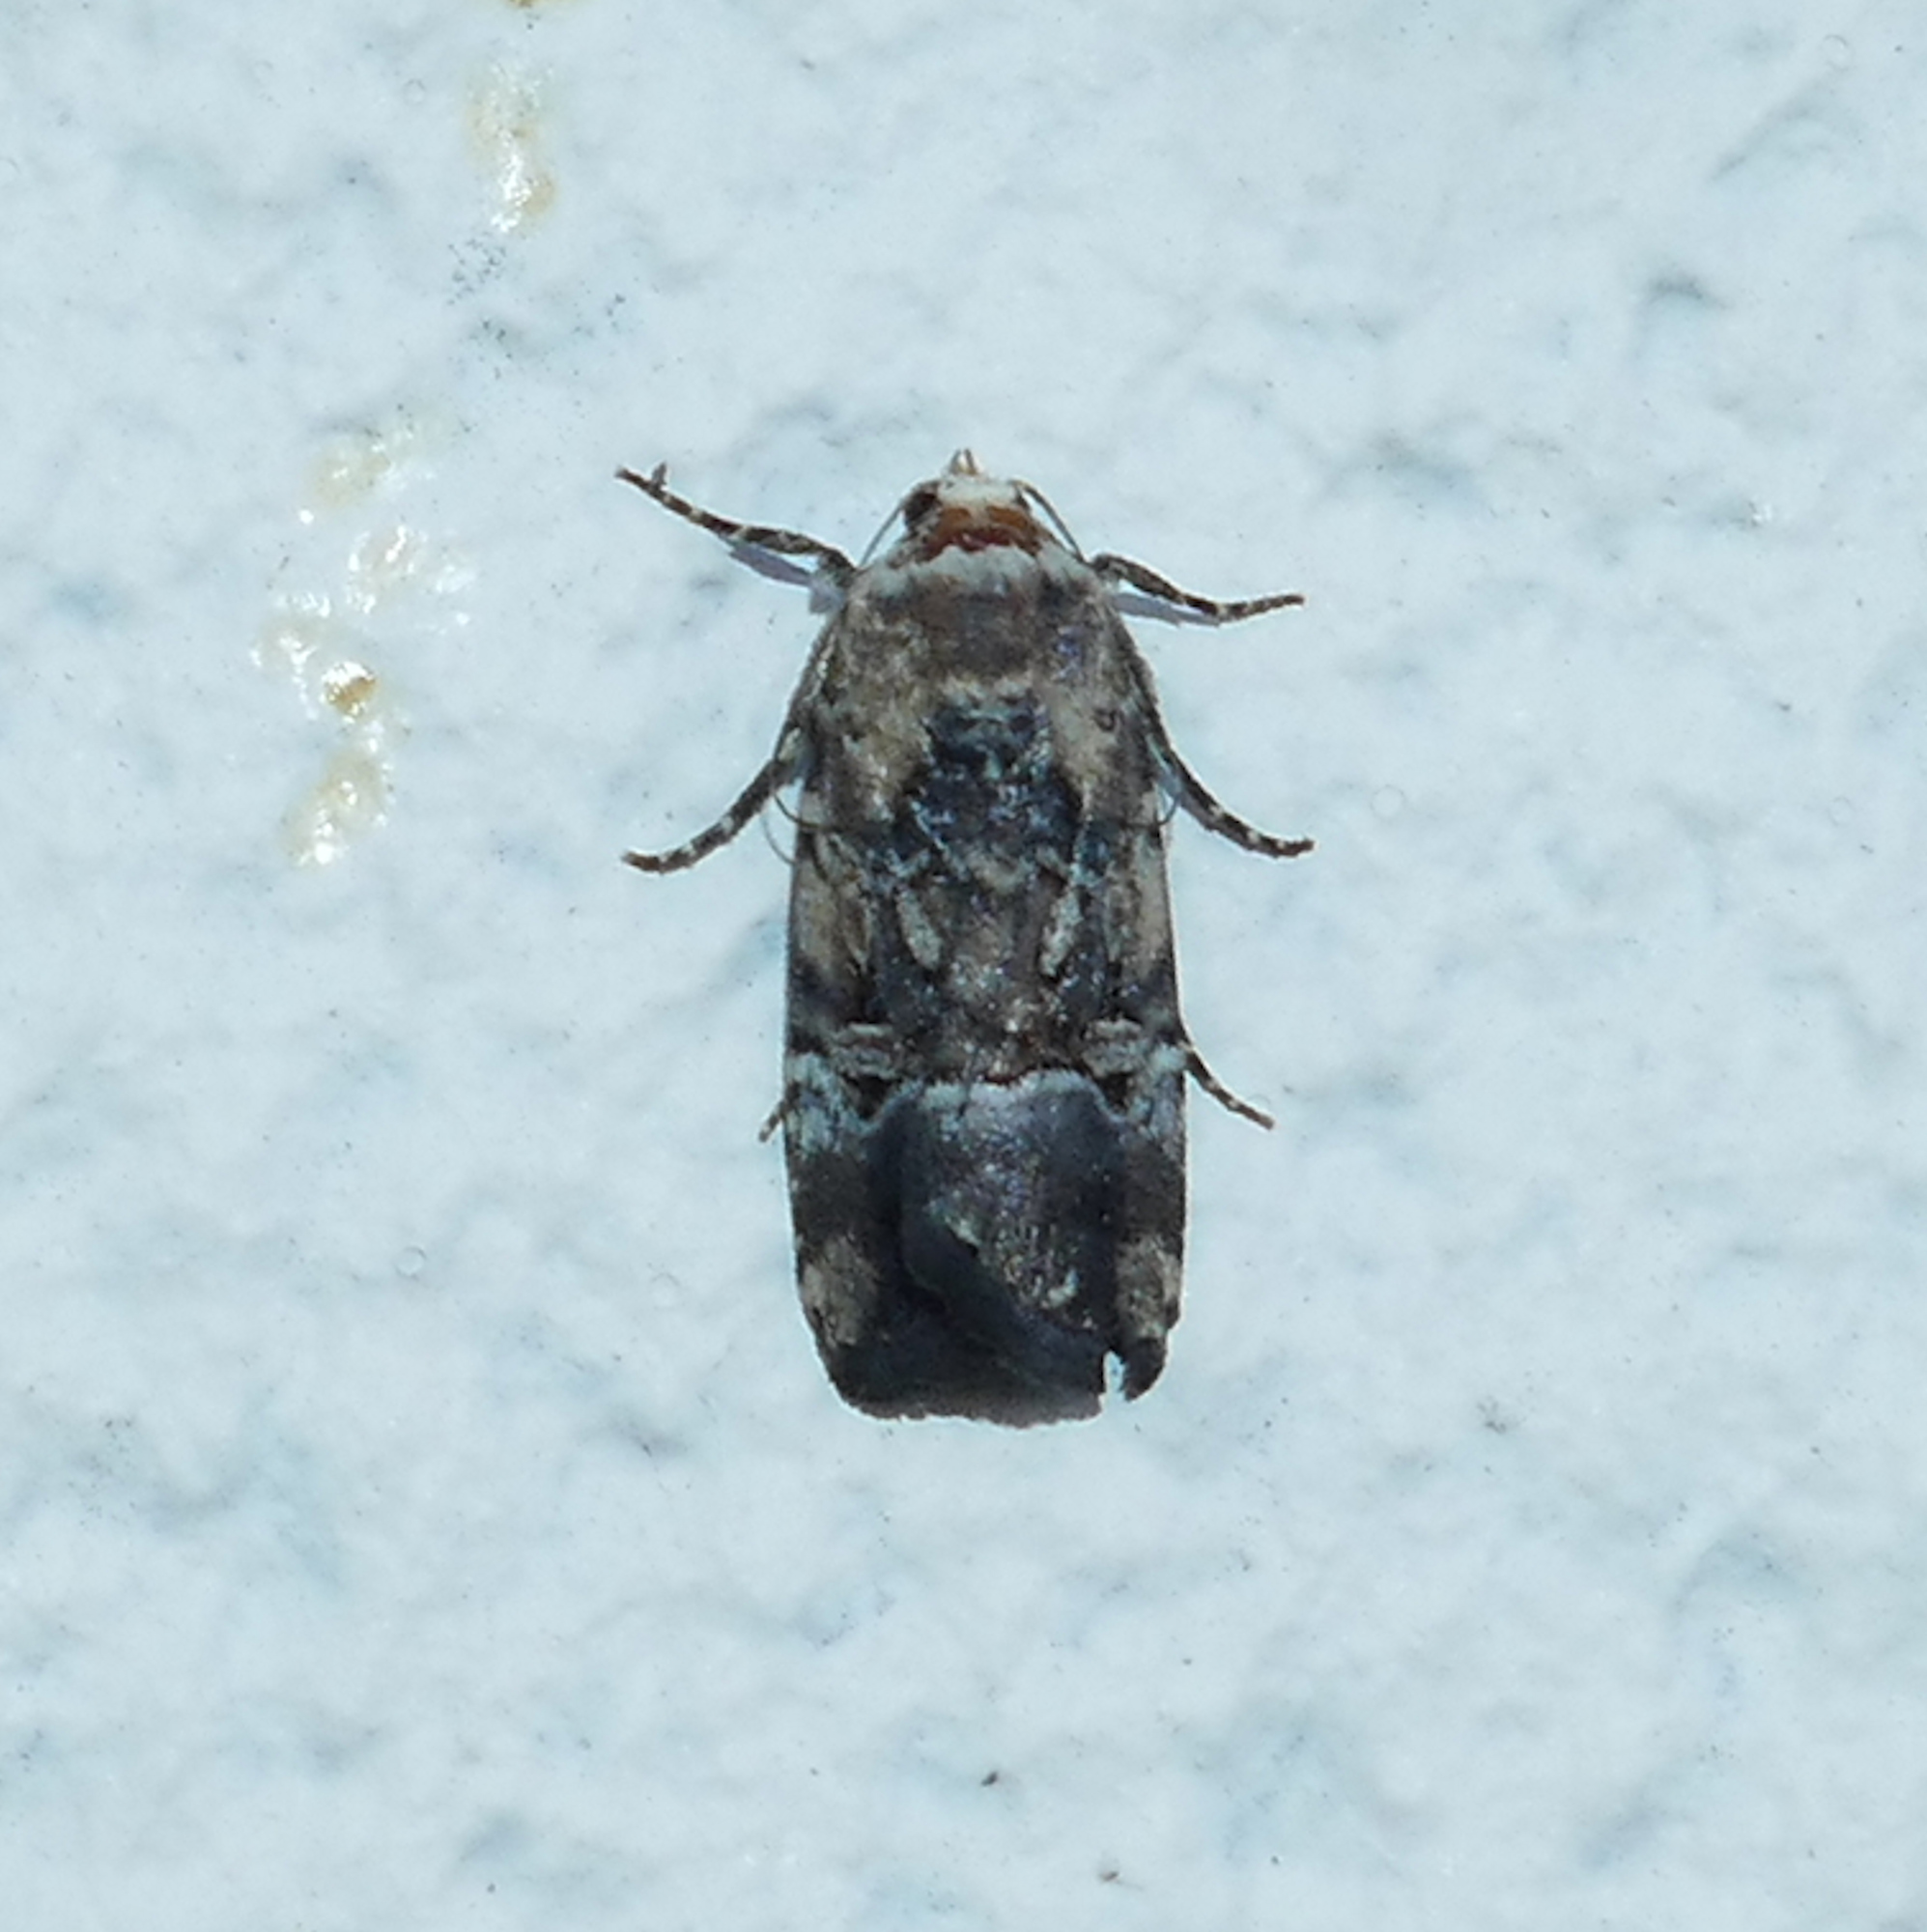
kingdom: Animalia
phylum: Arthropoda
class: Insecta
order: Lepidoptera
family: Noctuidae
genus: Elaphria
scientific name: Elaphria chalcedonia
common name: Chalcedony midget
